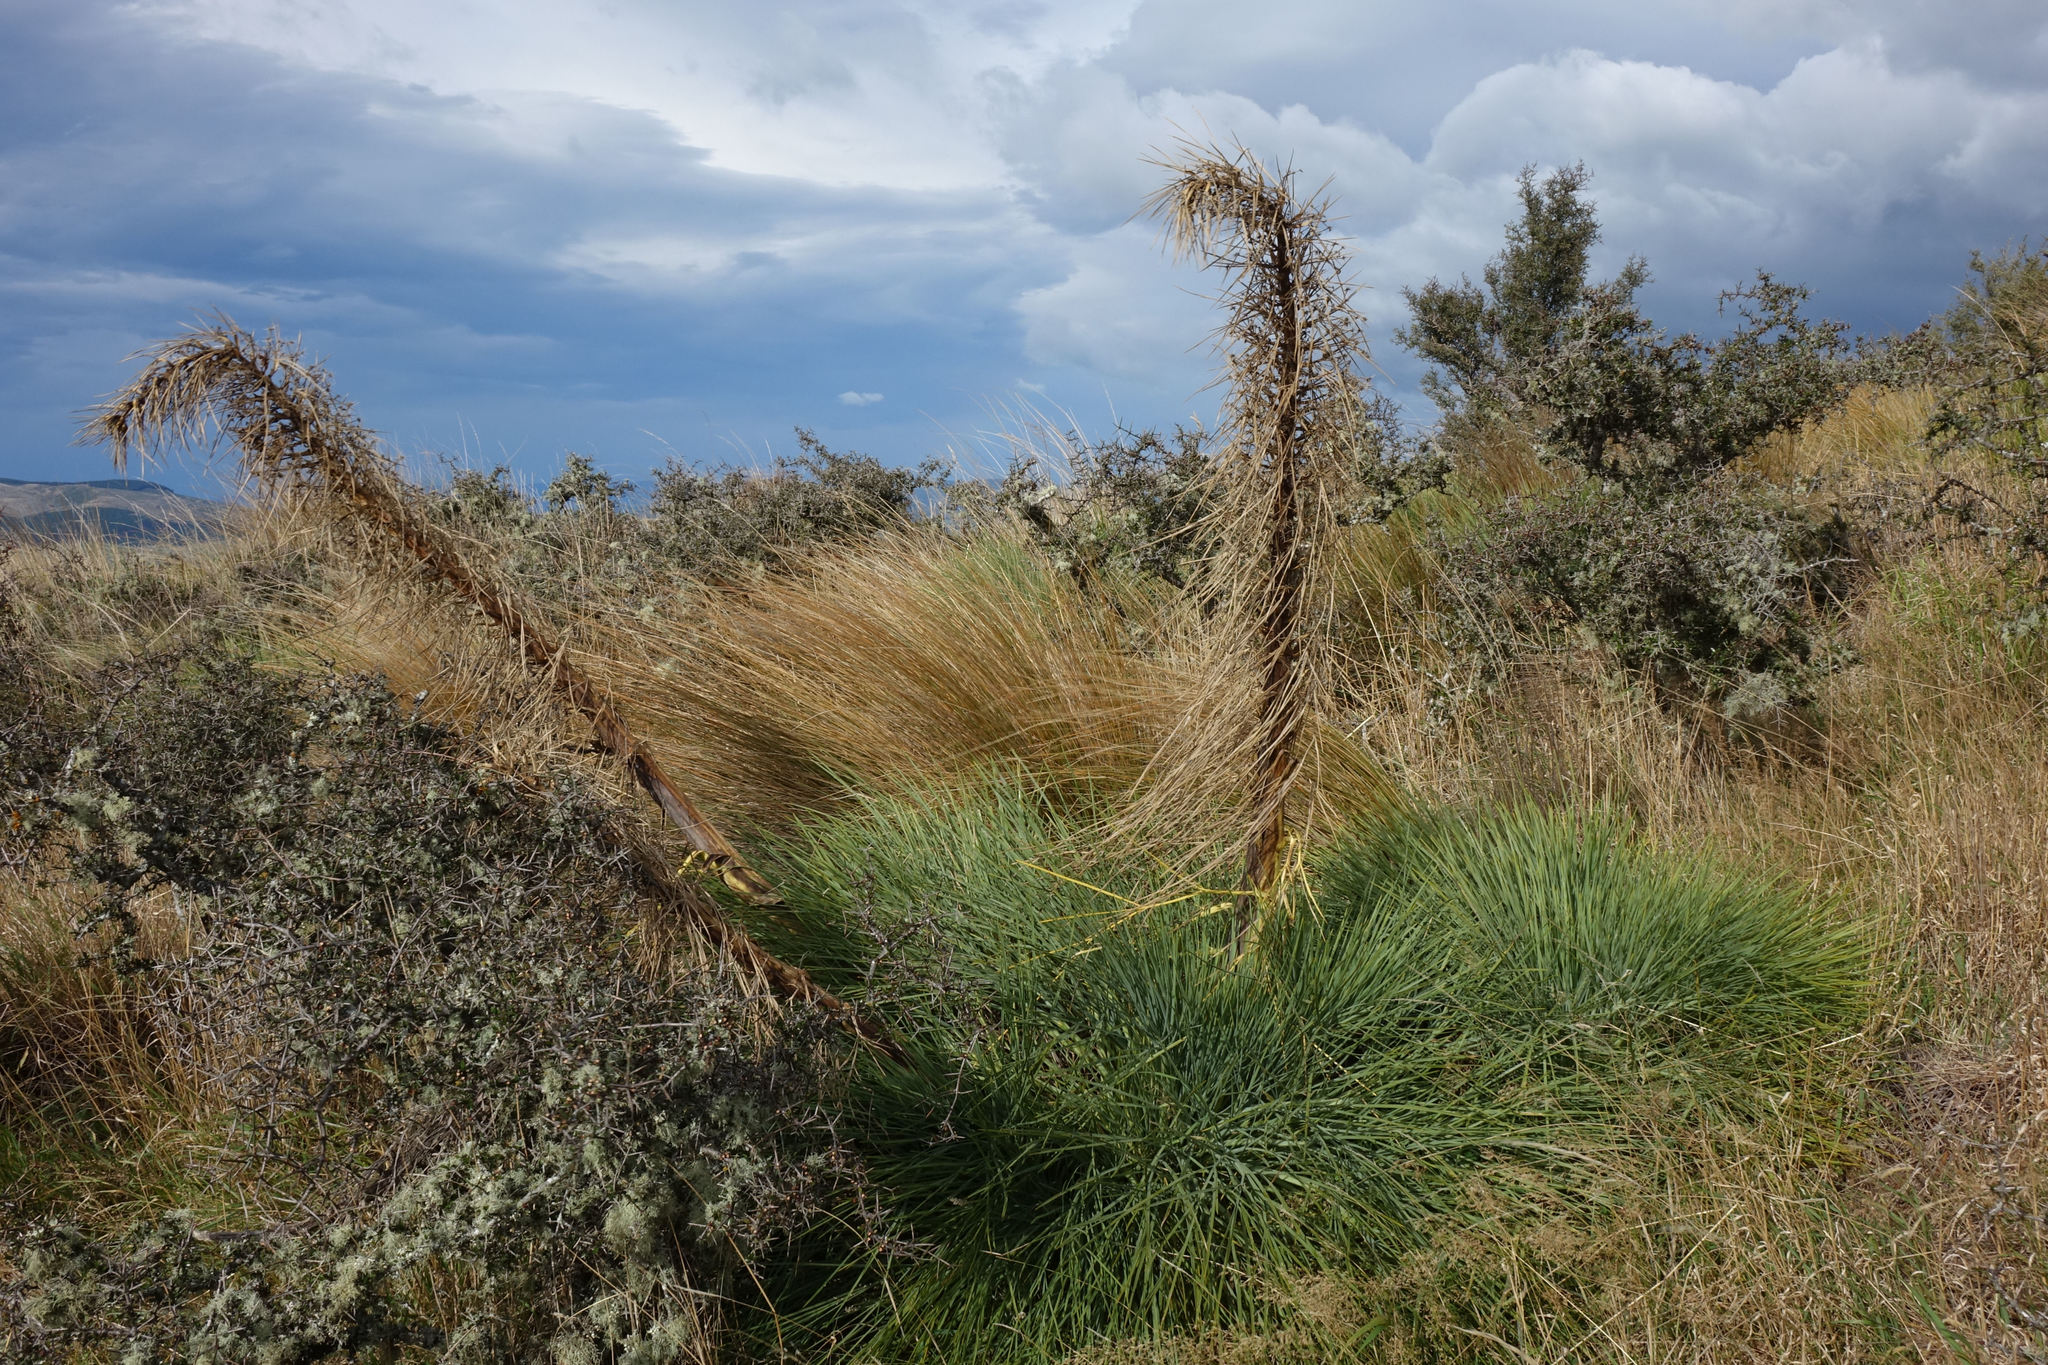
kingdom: Plantae
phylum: Tracheophyta
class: Magnoliopsida
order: Apiales
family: Apiaceae
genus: Aciphylla
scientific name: Aciphylla glaucescens
